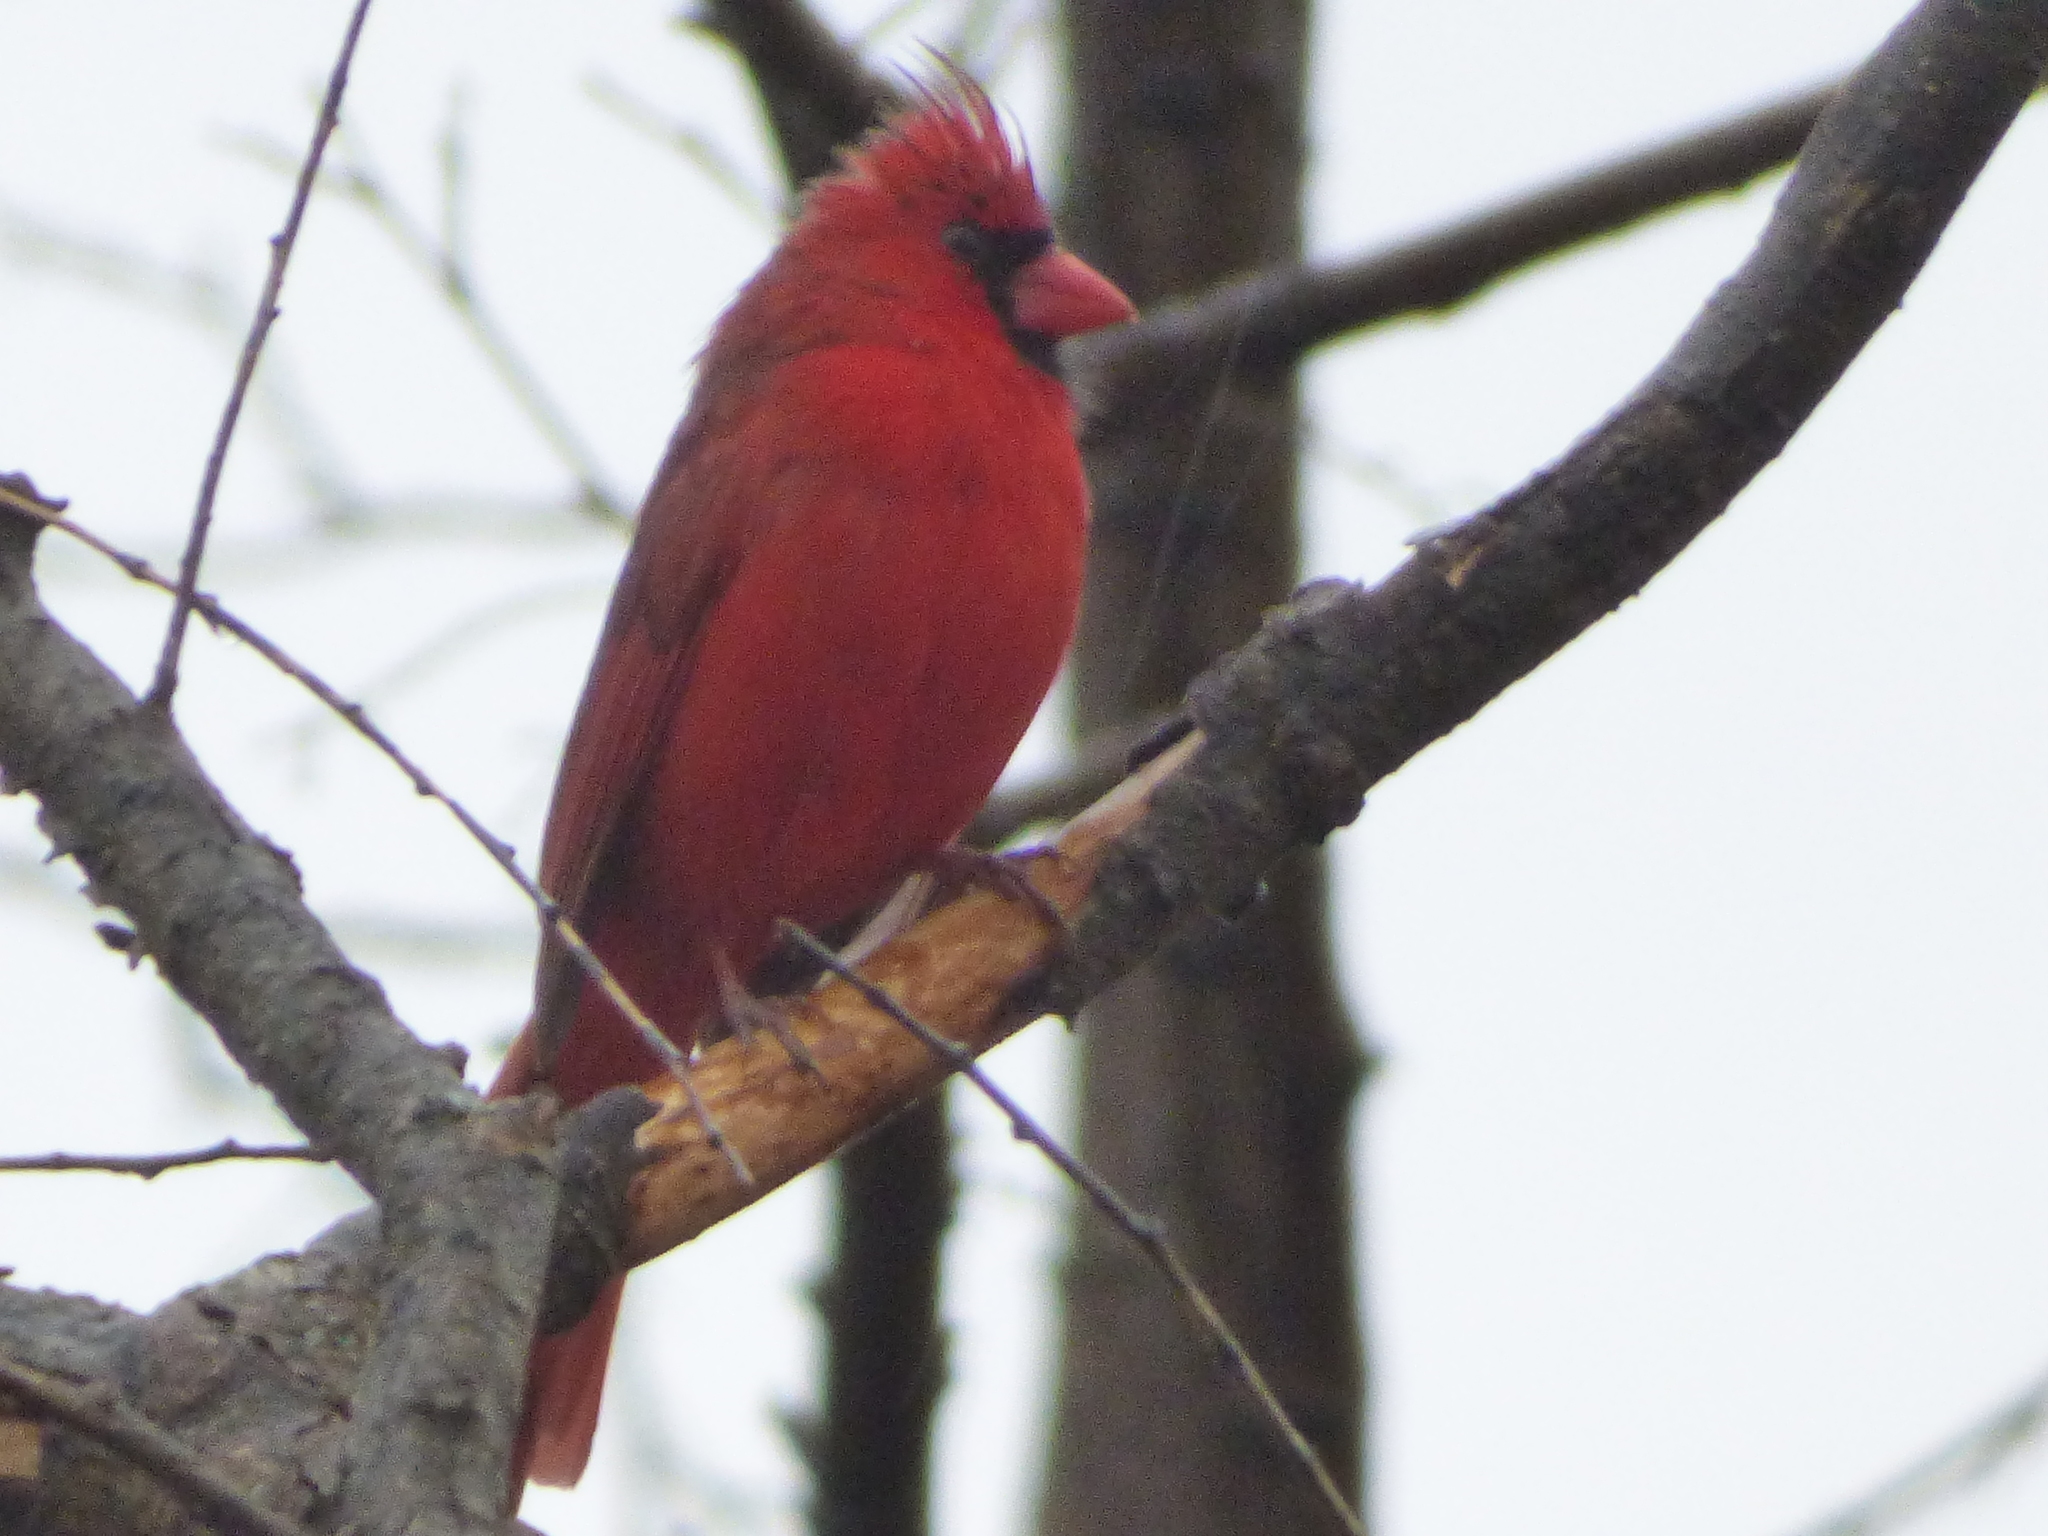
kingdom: Animalia
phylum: Chordata
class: Aves
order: Passeriformes
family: Cardinalidae
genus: Cardinalis
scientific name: Cardinalis cardinalis
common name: Northern cardinal
